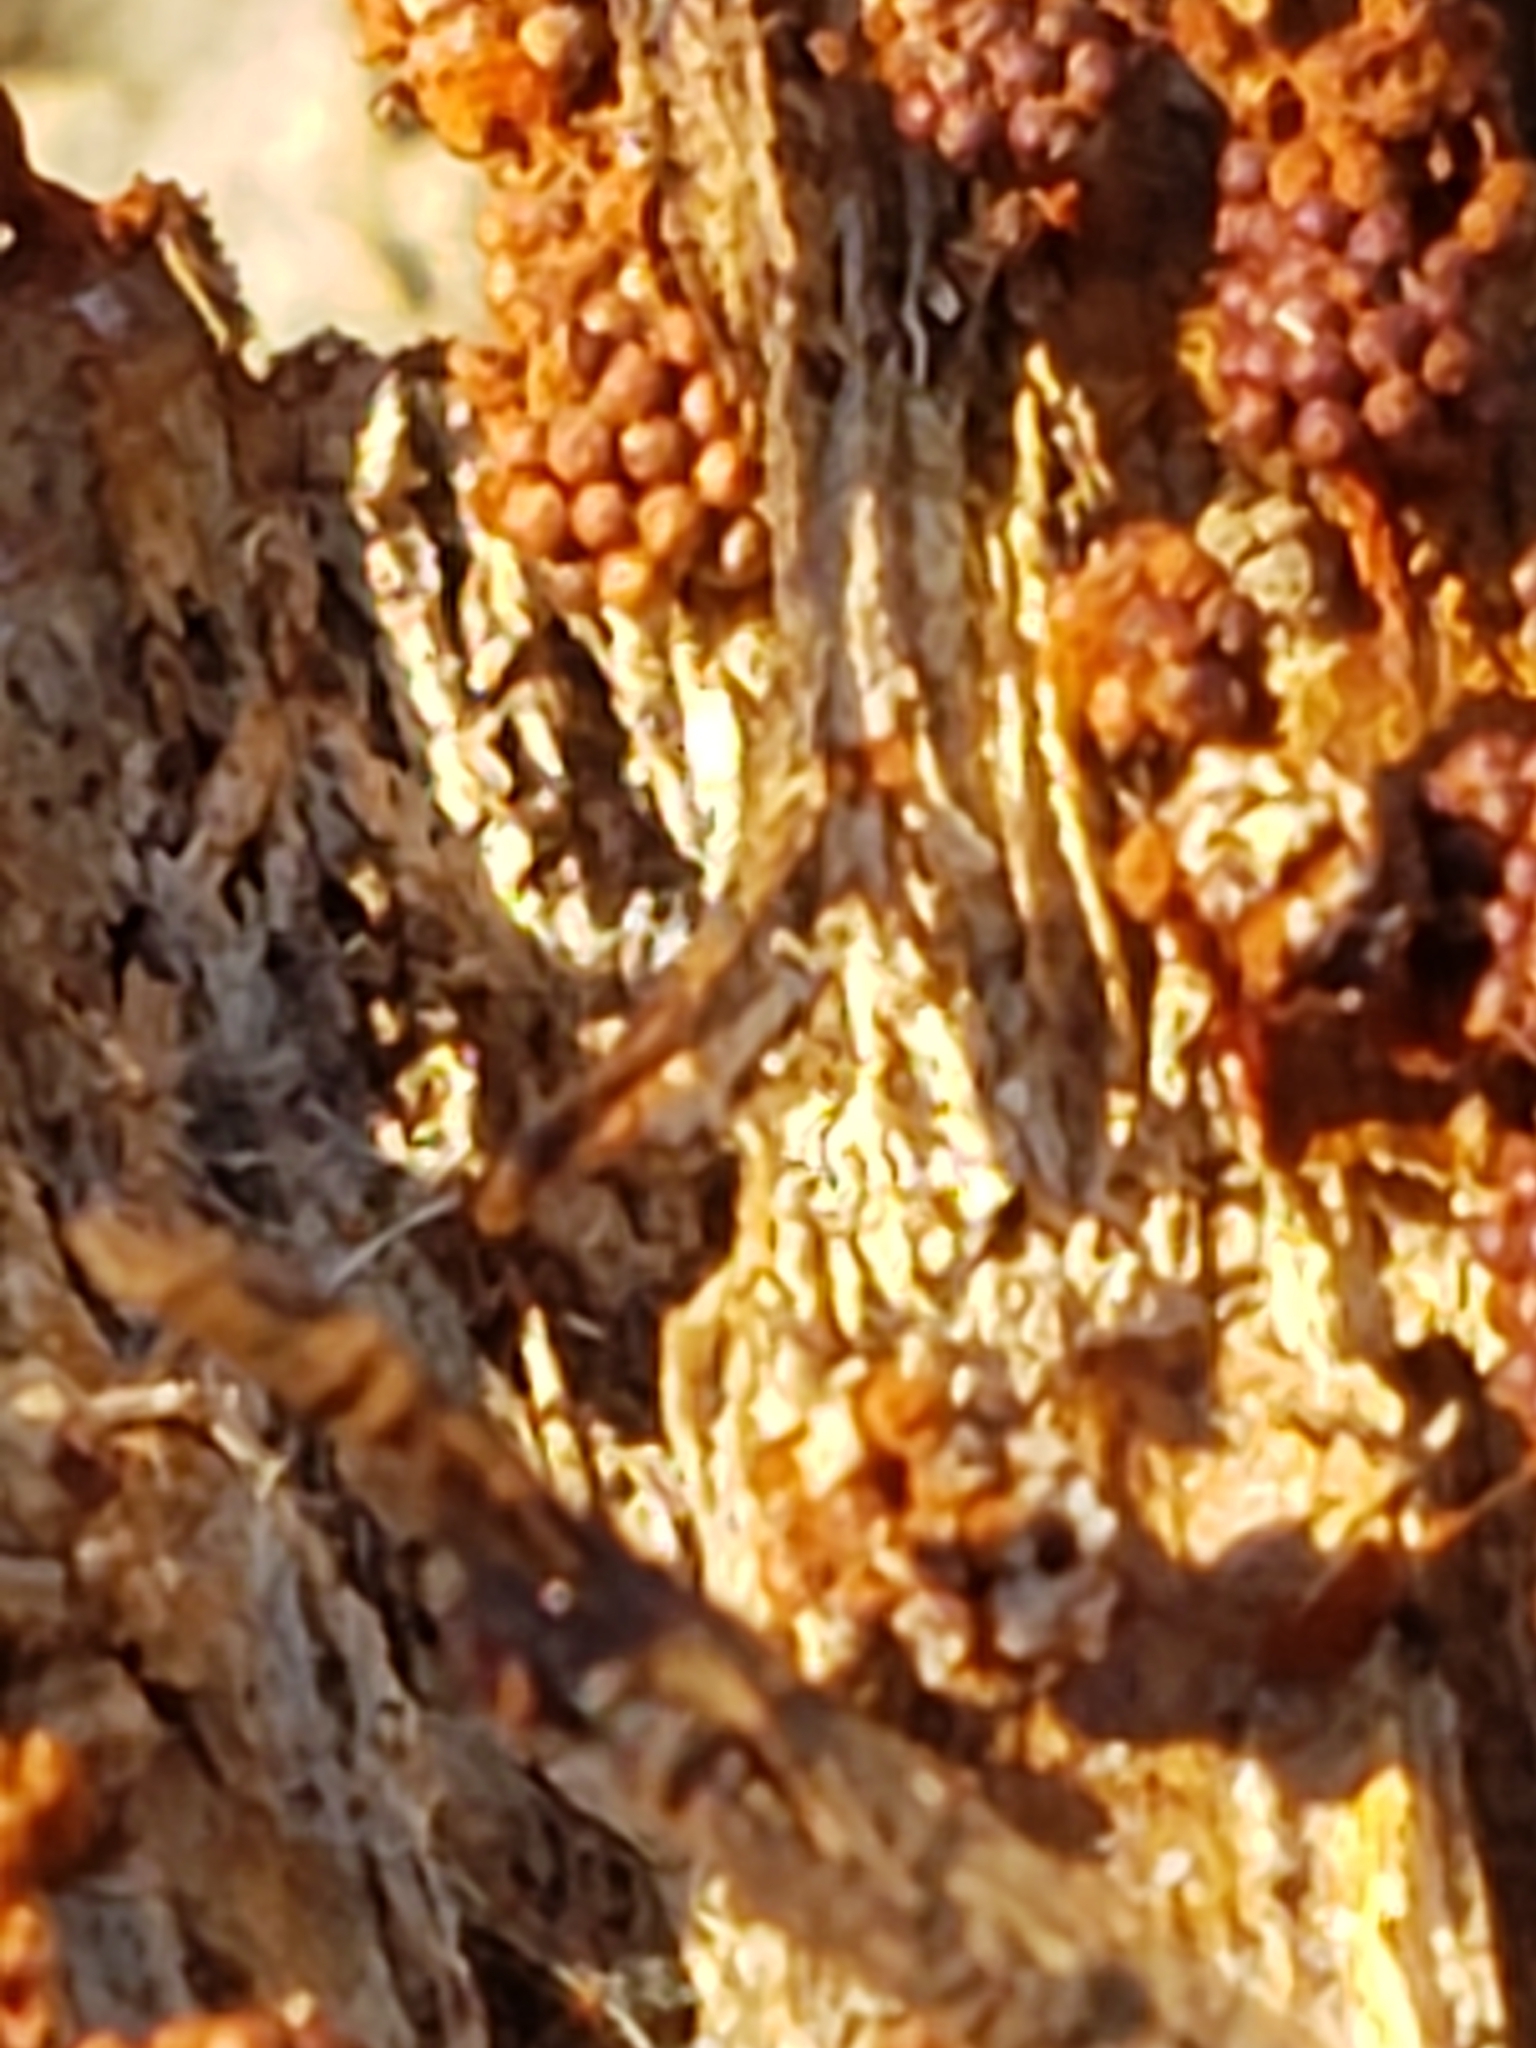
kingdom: Protozoa
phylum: Mycetozoa
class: Myxomycetes
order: Trichiales
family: Trichiaceae
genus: Metatrichia
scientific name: Metatrichia vesparia
